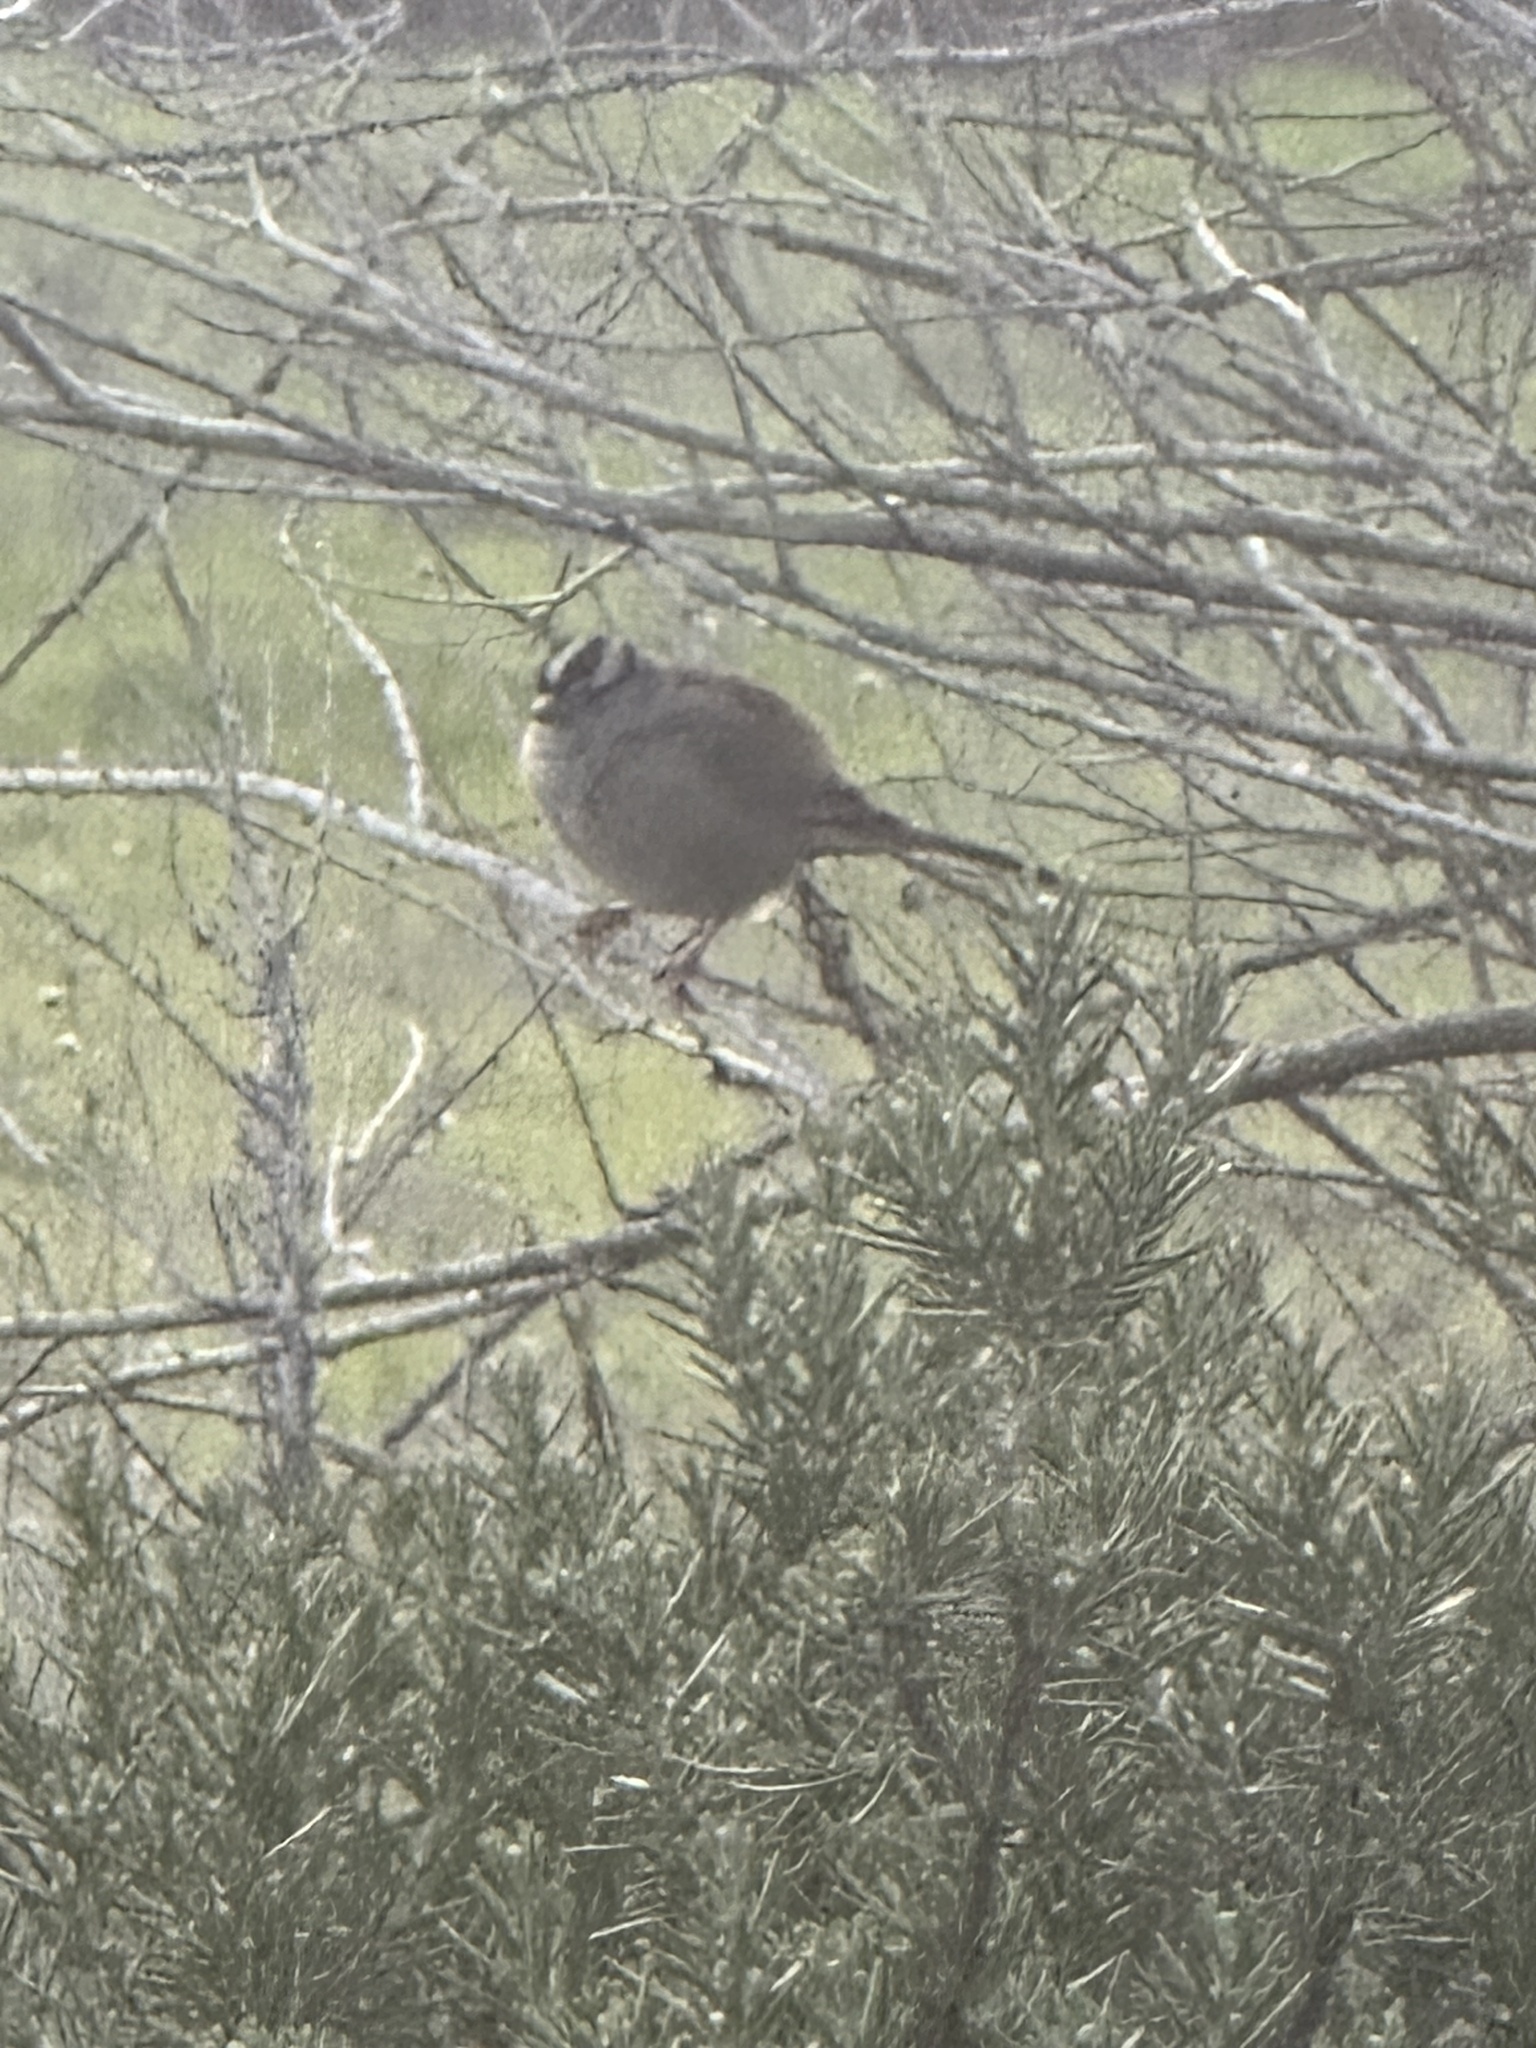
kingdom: Animalia
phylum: Chordata
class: Aves
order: Passeriformes
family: Passerellidae
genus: Zonotrichia
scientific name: Zonotrichia leucophrys
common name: White-crowned sparrow
